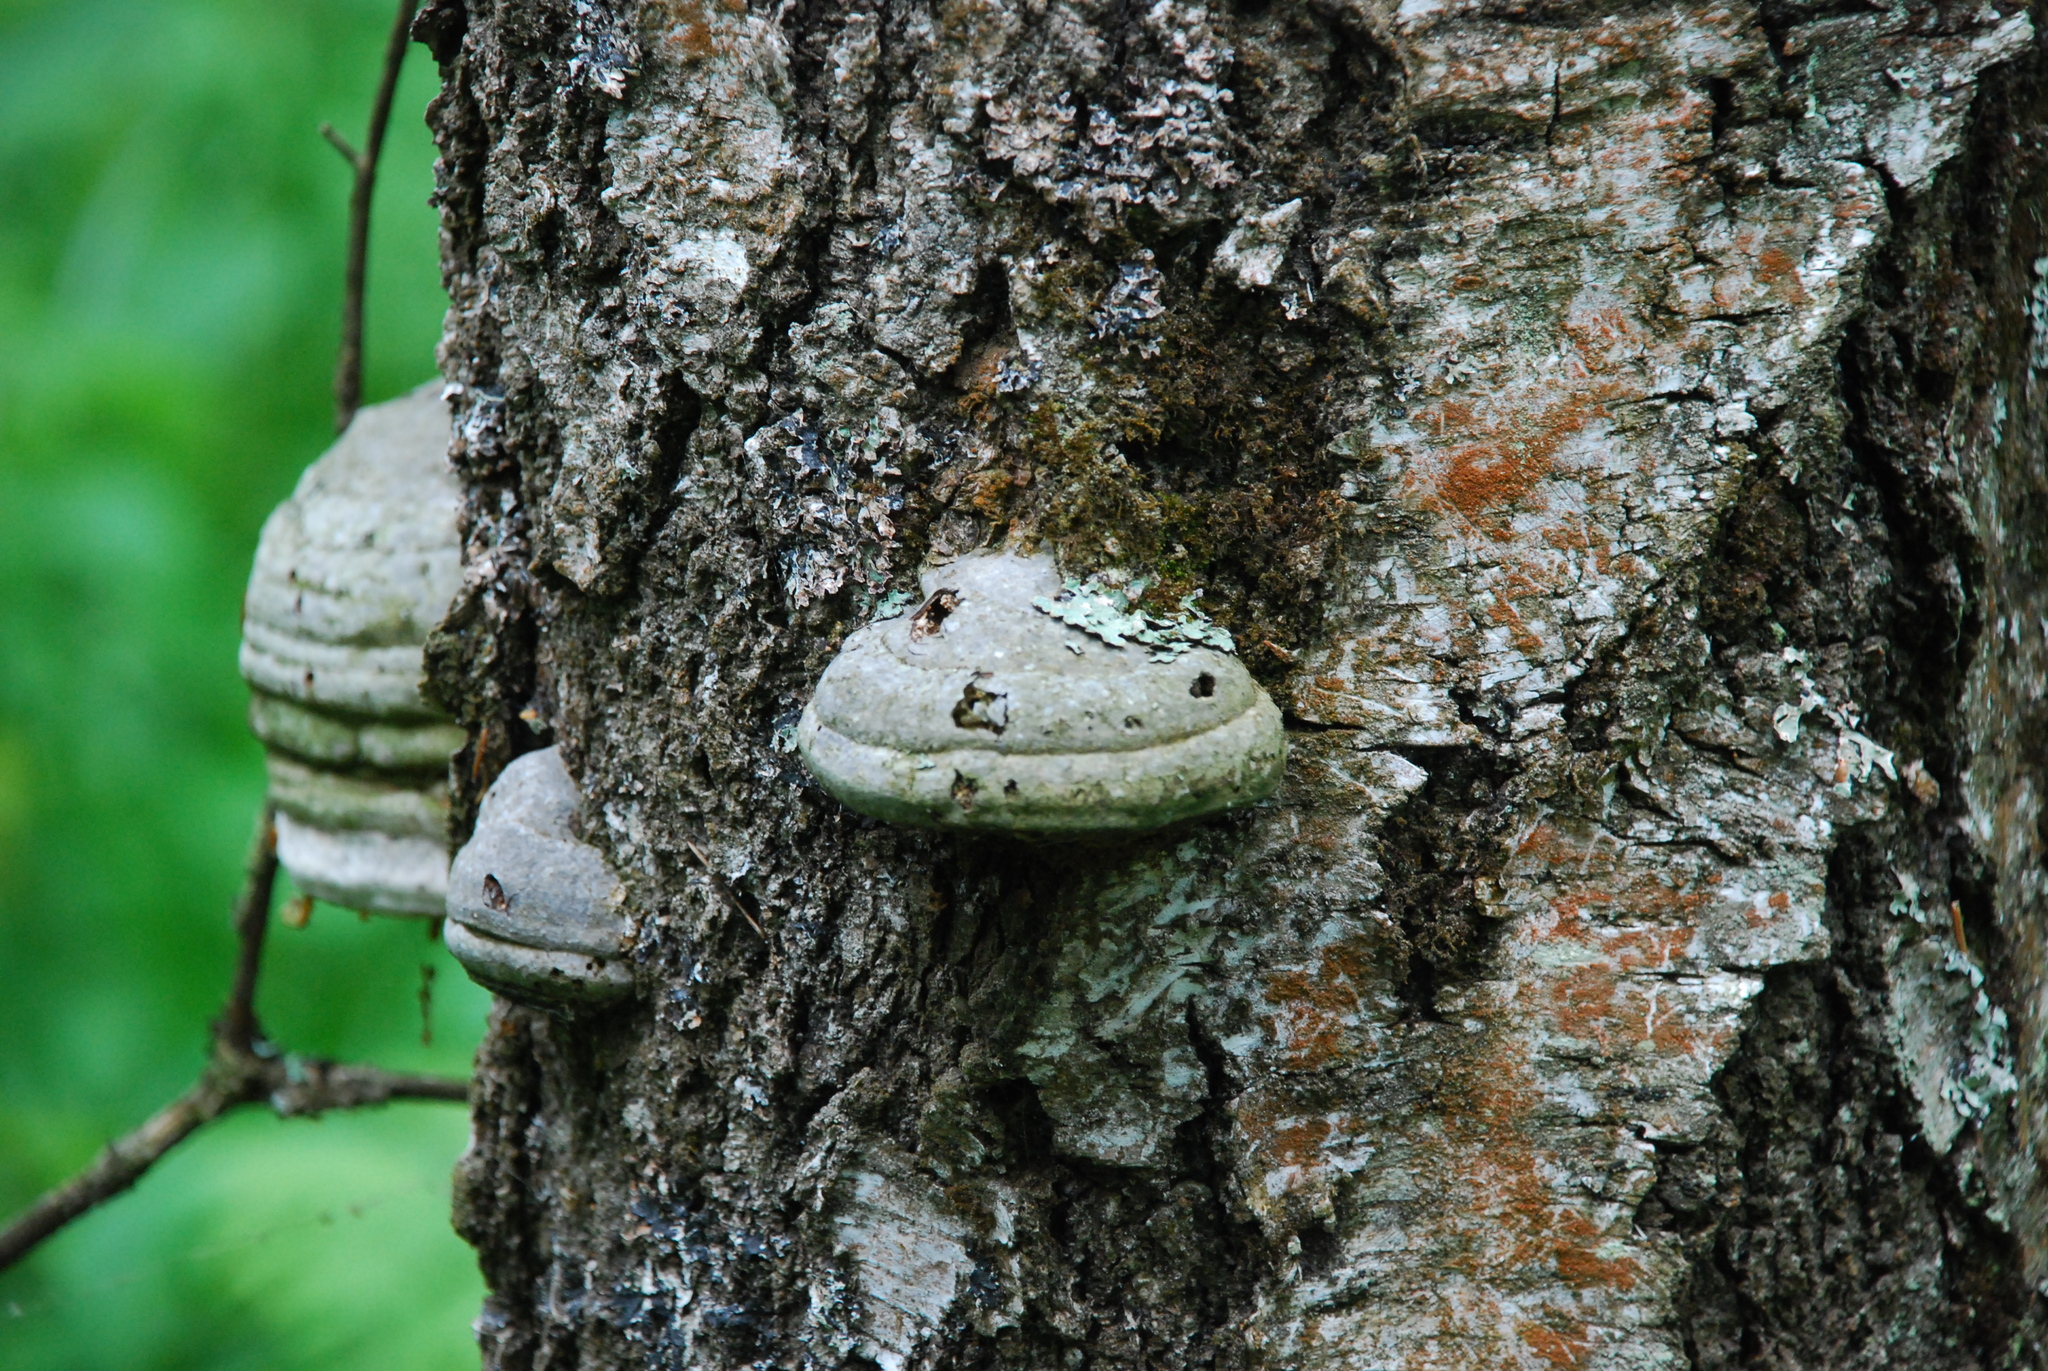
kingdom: Fungi
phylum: Basidiomycota
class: Agaricomycetes
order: Polyporales
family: Polyporaceae
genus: Fomes
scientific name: Fomes fomentarius
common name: Hoof fungus
